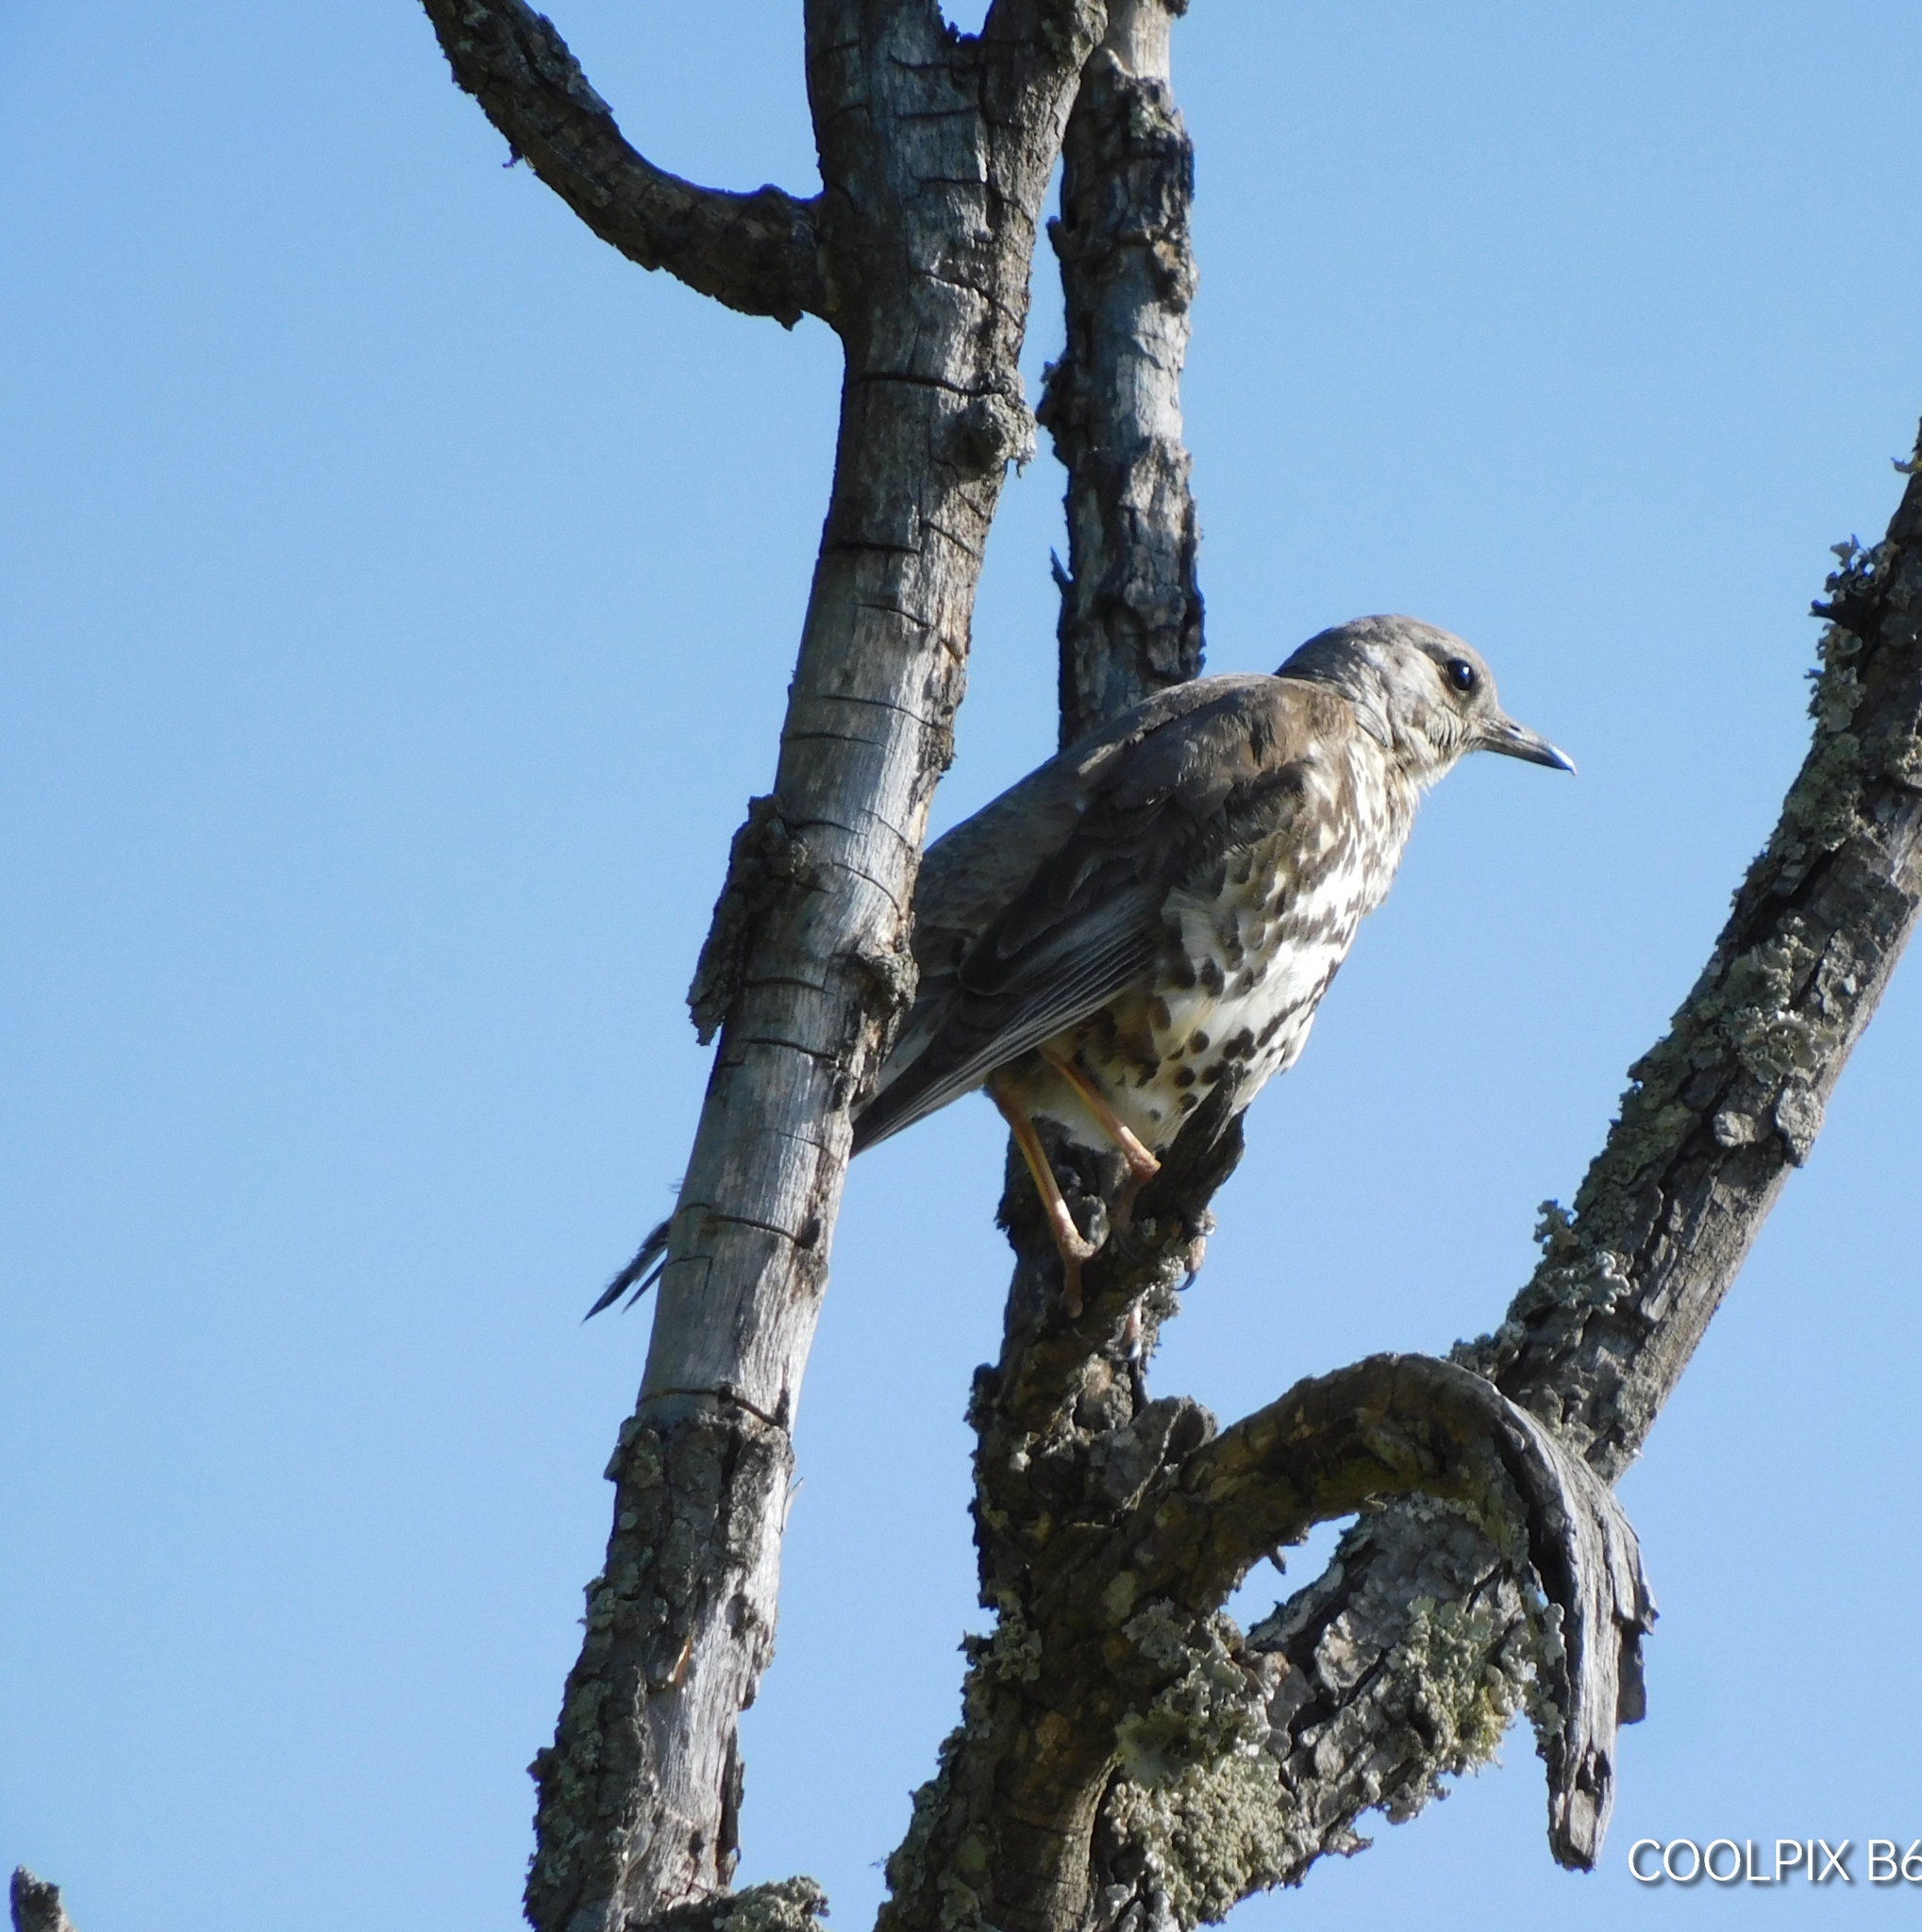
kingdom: Animalia
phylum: Chordata
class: Aves
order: Passeriformes
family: Turdidae
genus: Turdus
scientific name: Turdus viscivorus
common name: Mistle thrush
